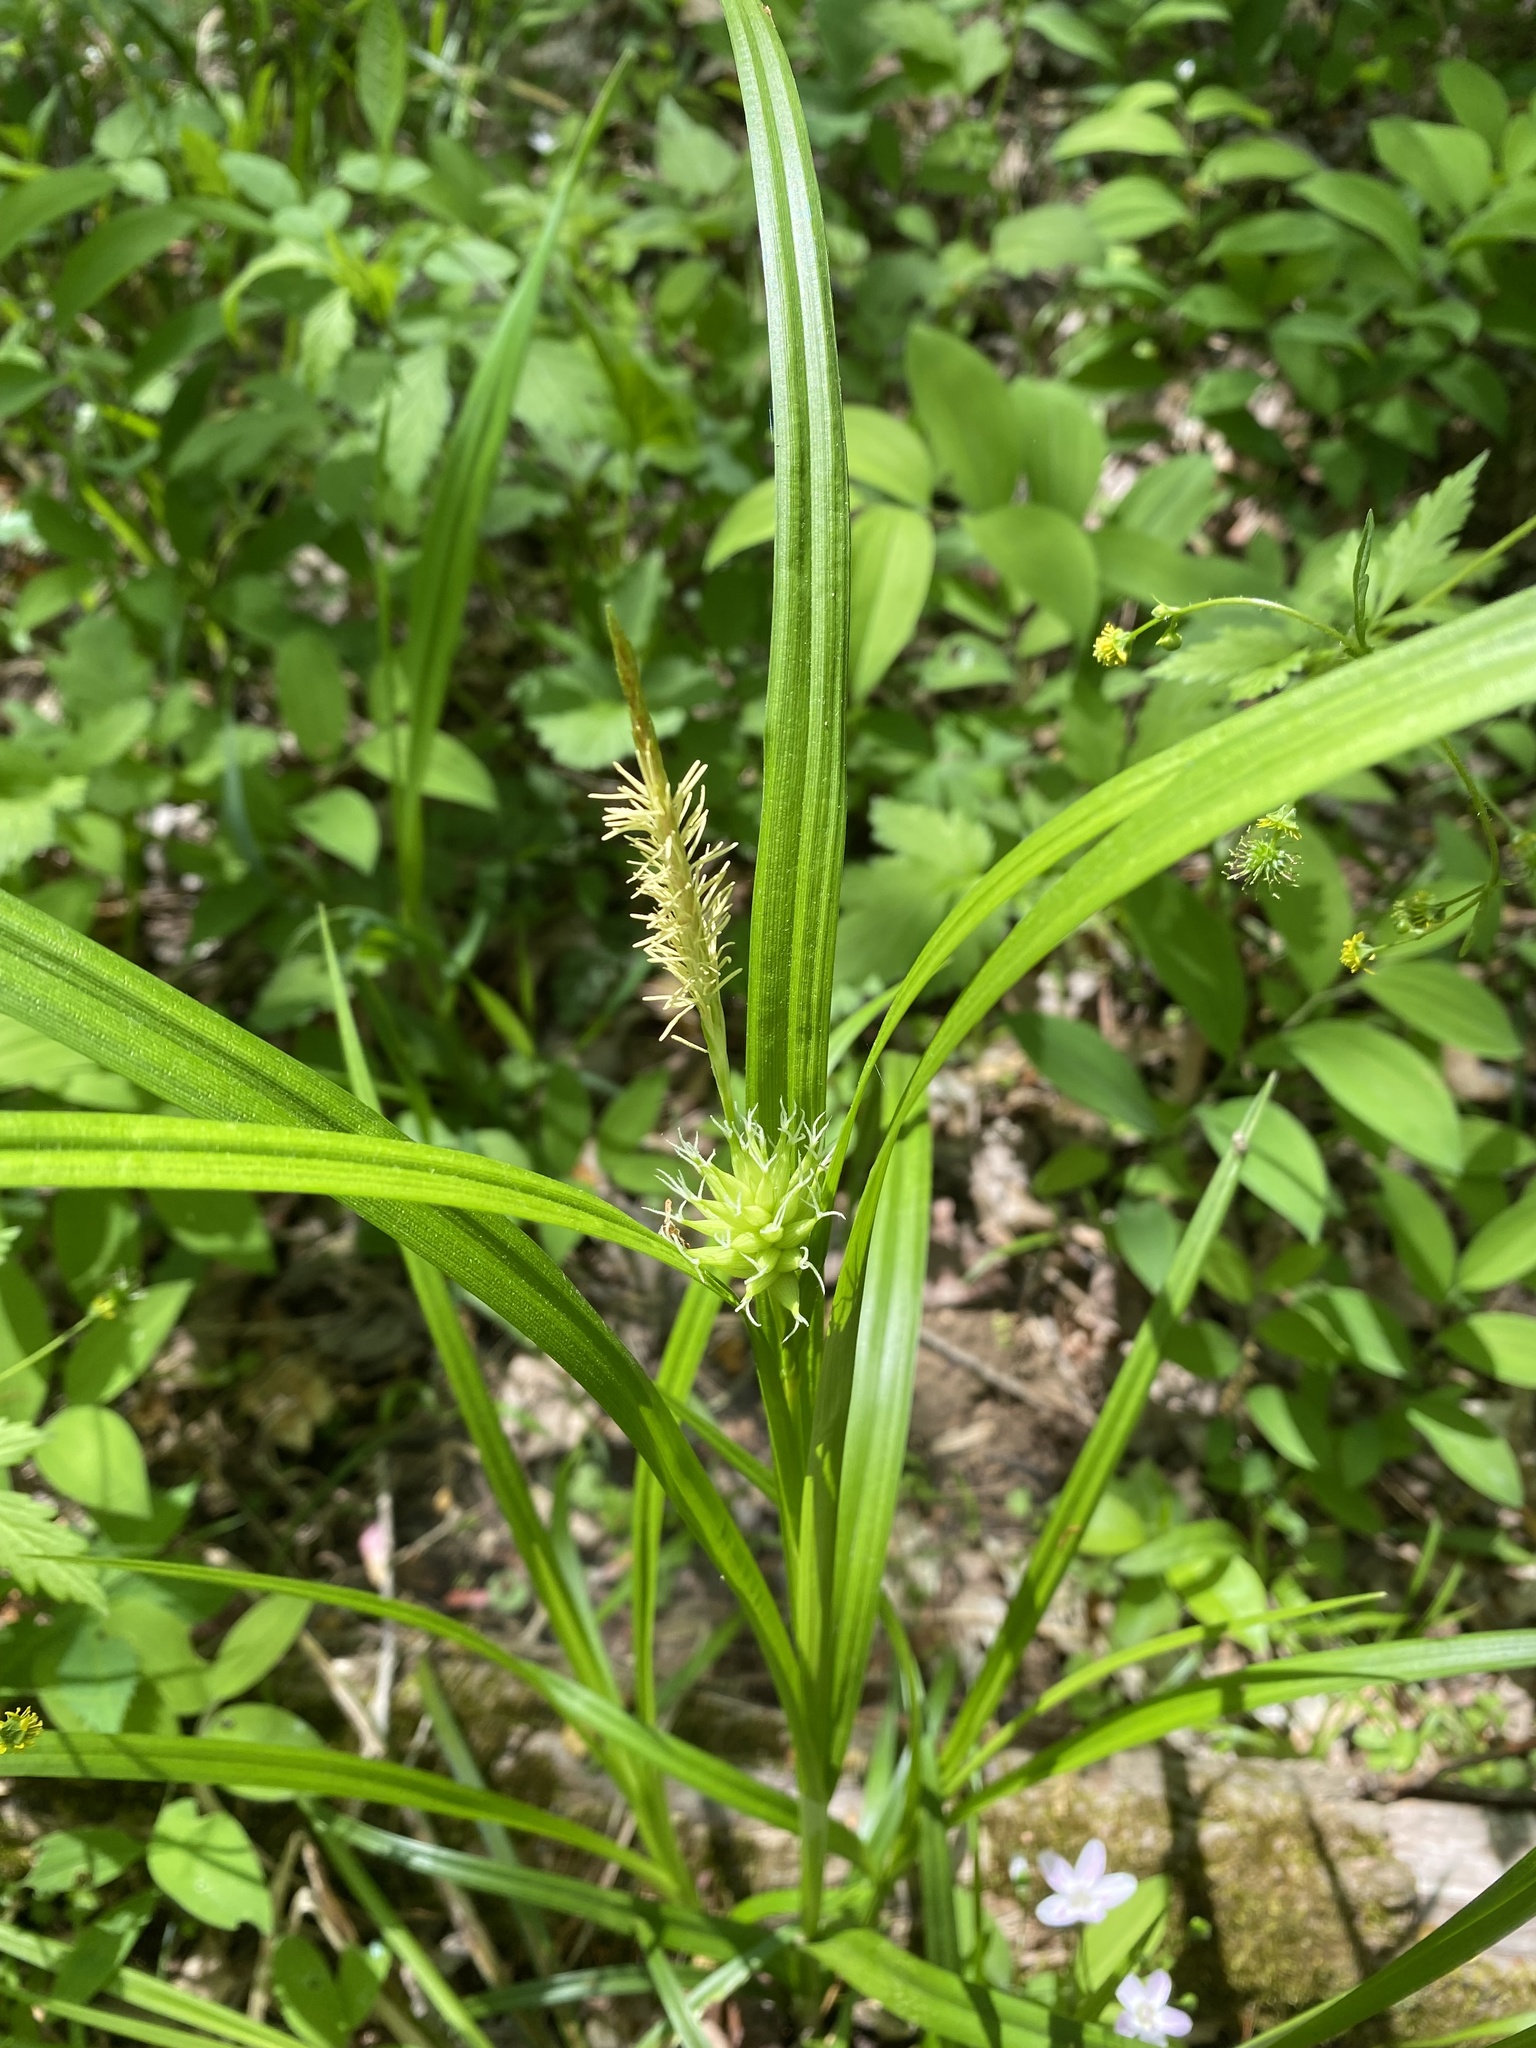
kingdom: Plantae
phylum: Tracheophyta
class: Liliopsida
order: Poales
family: Cyperaceae
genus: Carex
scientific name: Carex grayi
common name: Asa gray's sedge
